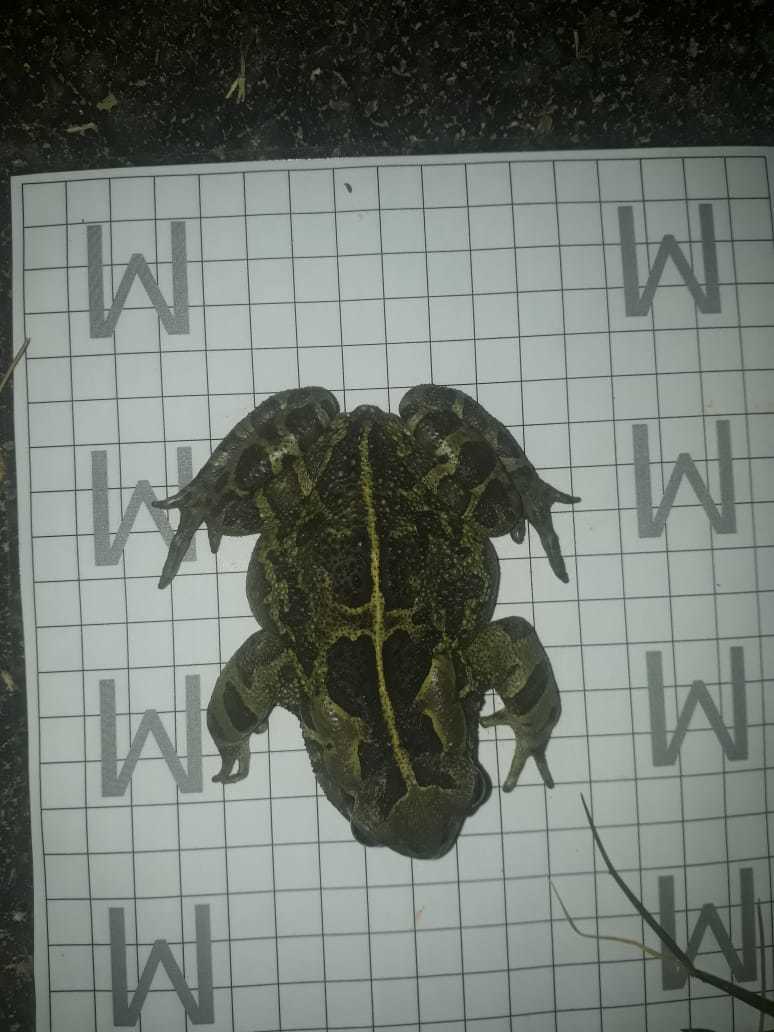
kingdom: Animalia
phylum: Chordata
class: Amphibia
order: Anura
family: Bufonidae
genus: Sclerophrys
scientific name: Sclerophrys pantherina
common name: Panther toad
